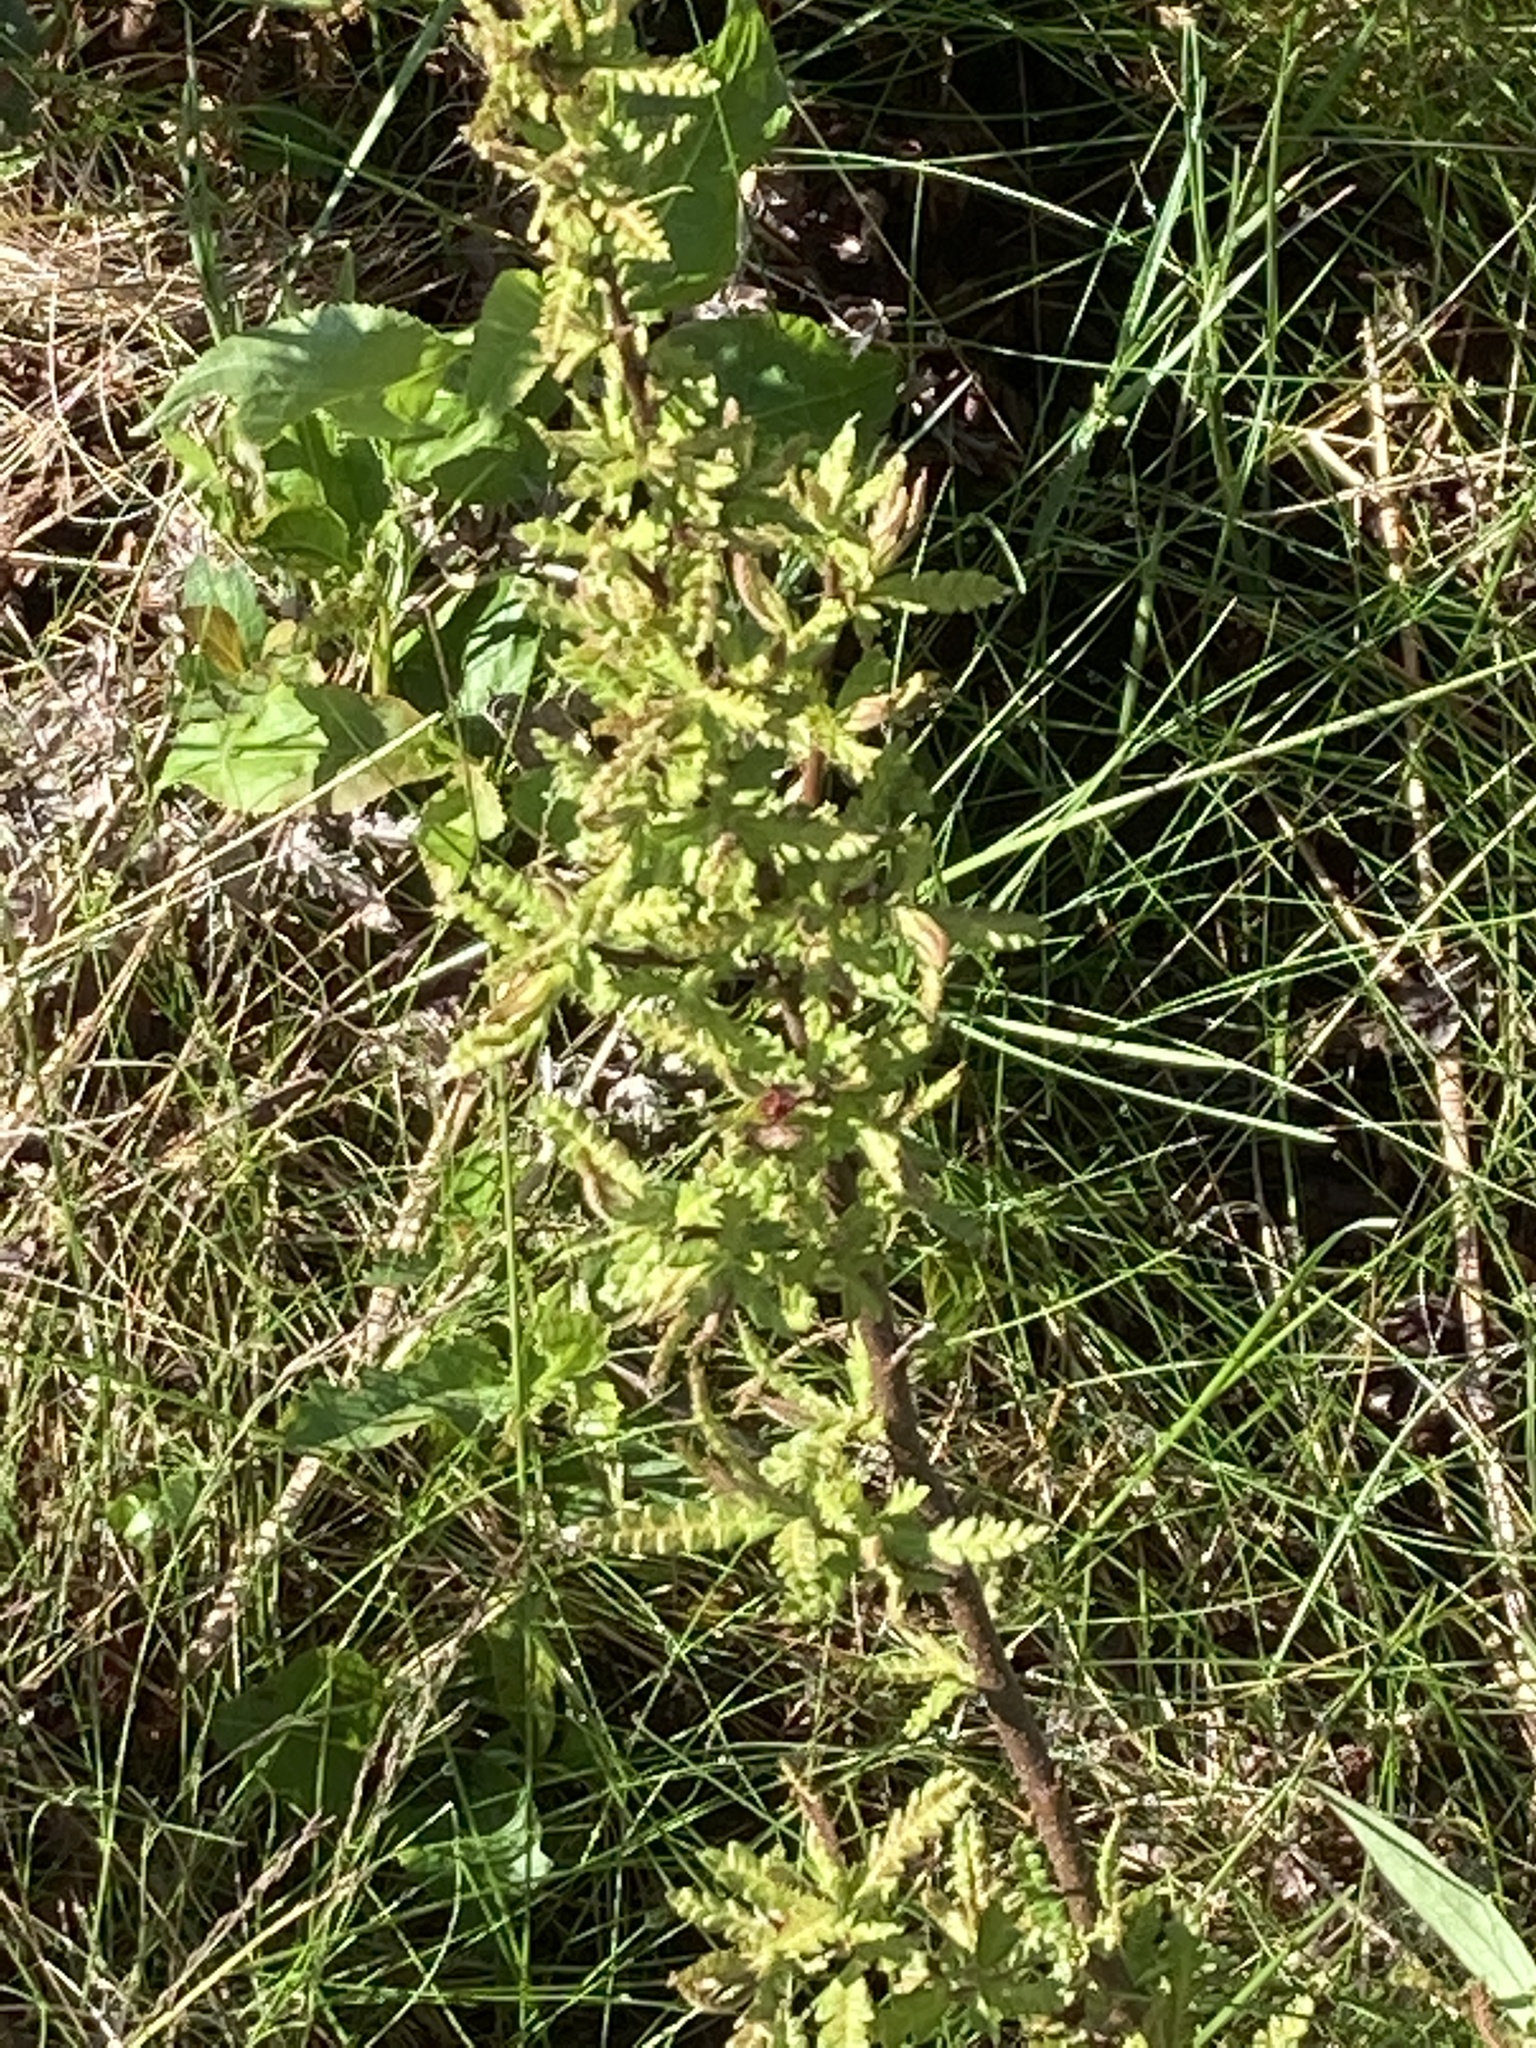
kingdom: Plantae
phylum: Tracheophyta
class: Magnoliopsida
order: Fagales
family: Myricaceae
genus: Comptonia
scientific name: Comptonia peregrina
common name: Sweet-fern
